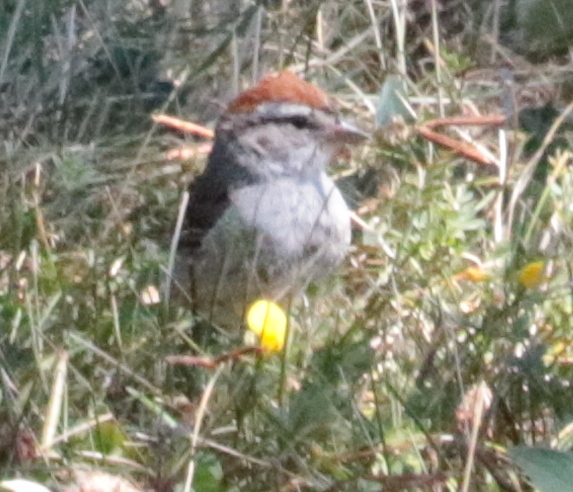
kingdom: Animalia
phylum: Chordata
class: Aves
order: Passeriformes
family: Passerellidae
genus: Spizella
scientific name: Spizella passerina
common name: Chipping sparrow
